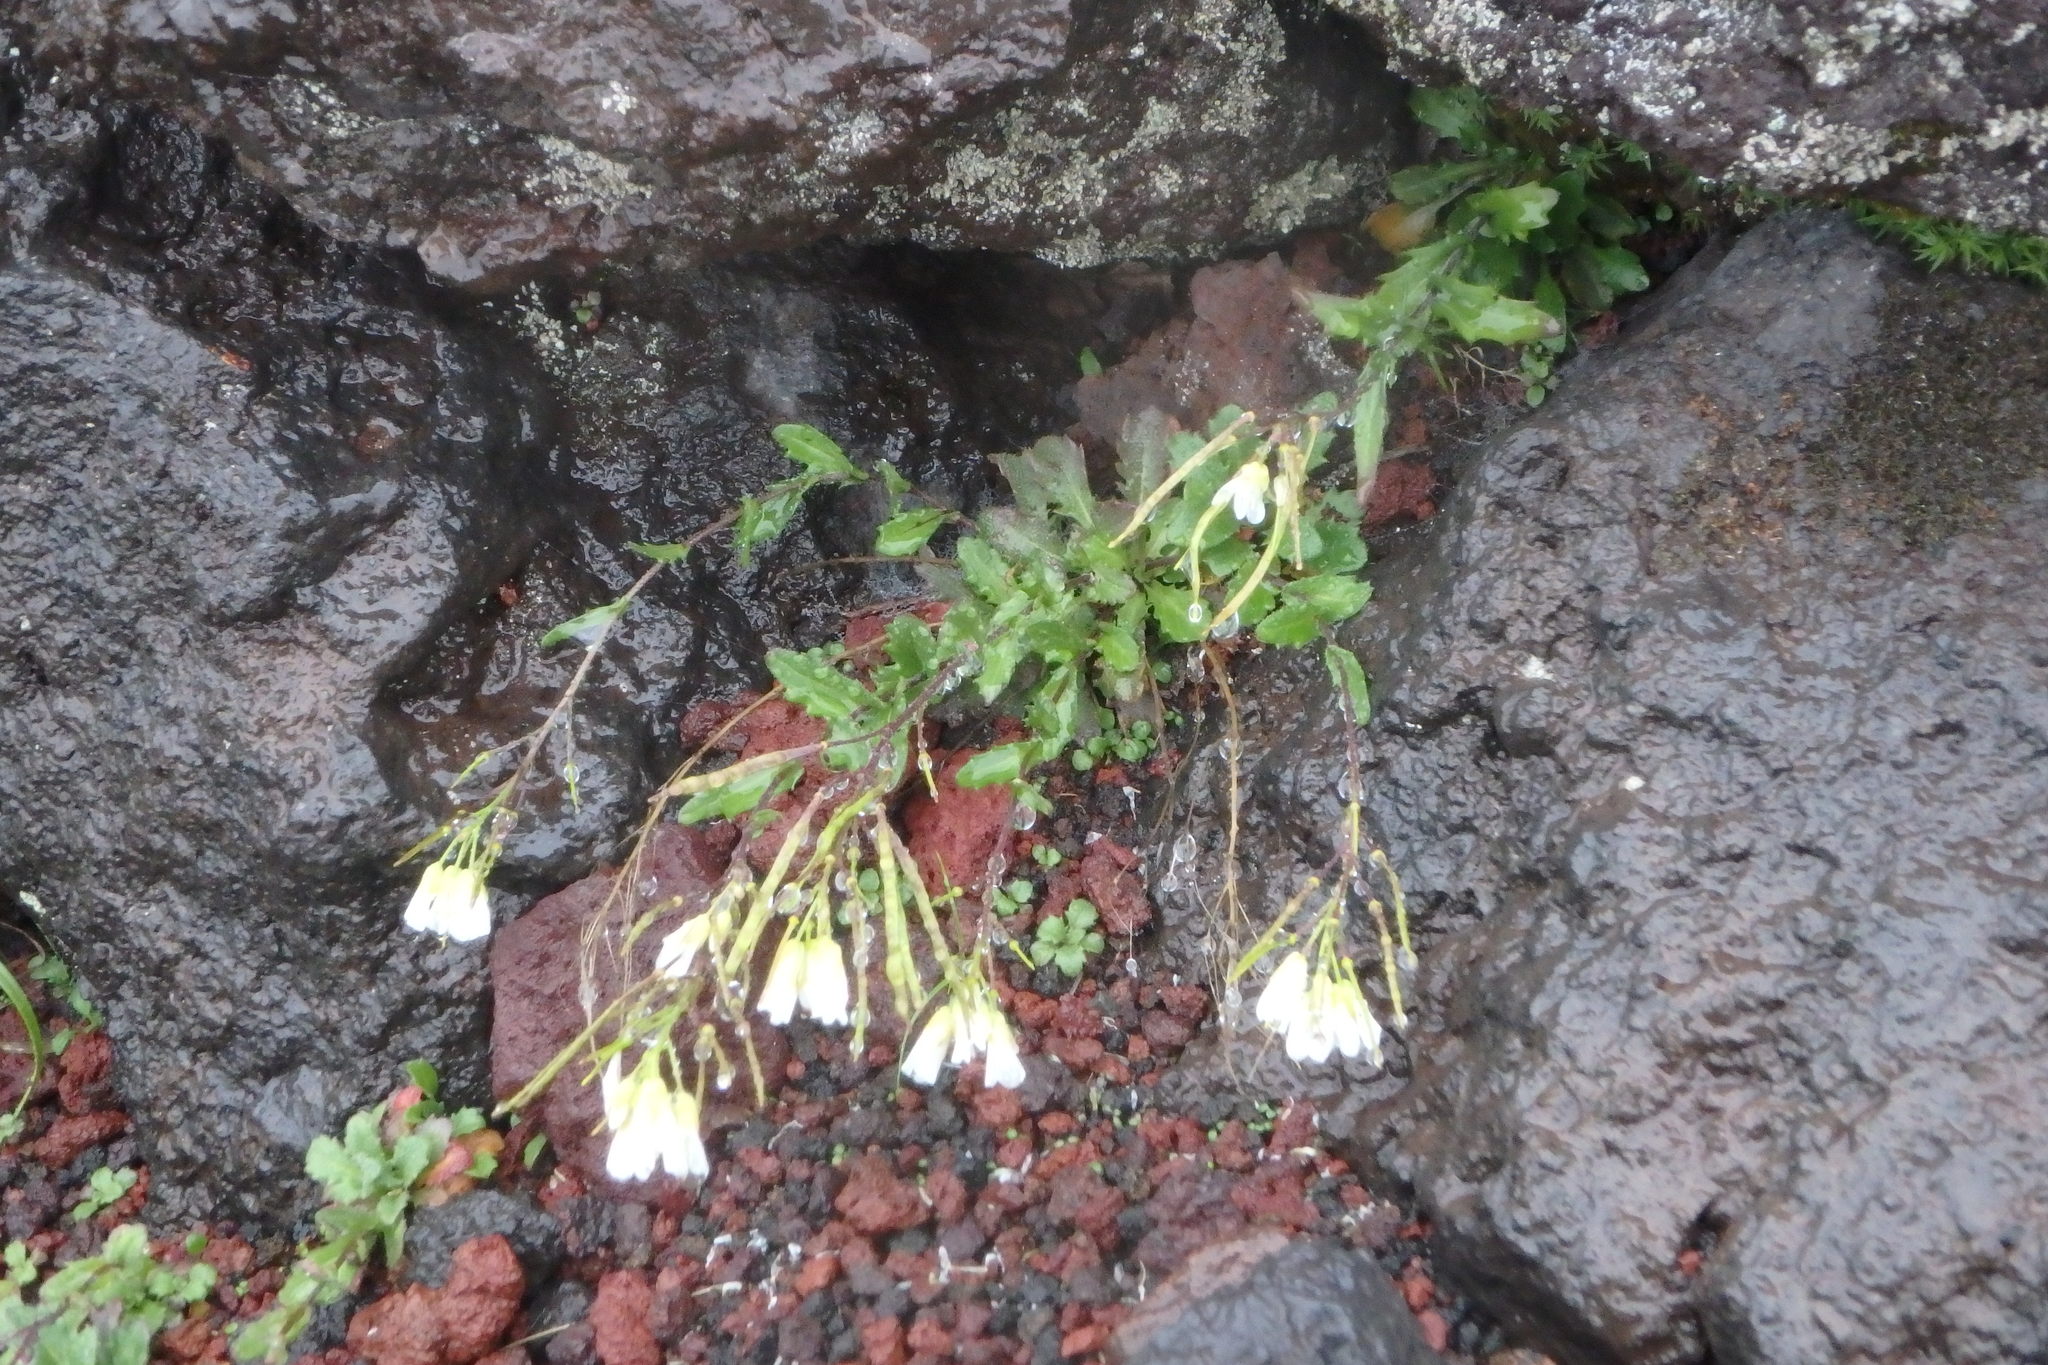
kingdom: Plantae
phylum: Tracheophyta
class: Magnoliopsida
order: Brassicales
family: Brassicaceae
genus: Arabis
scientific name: Arabis serrata
